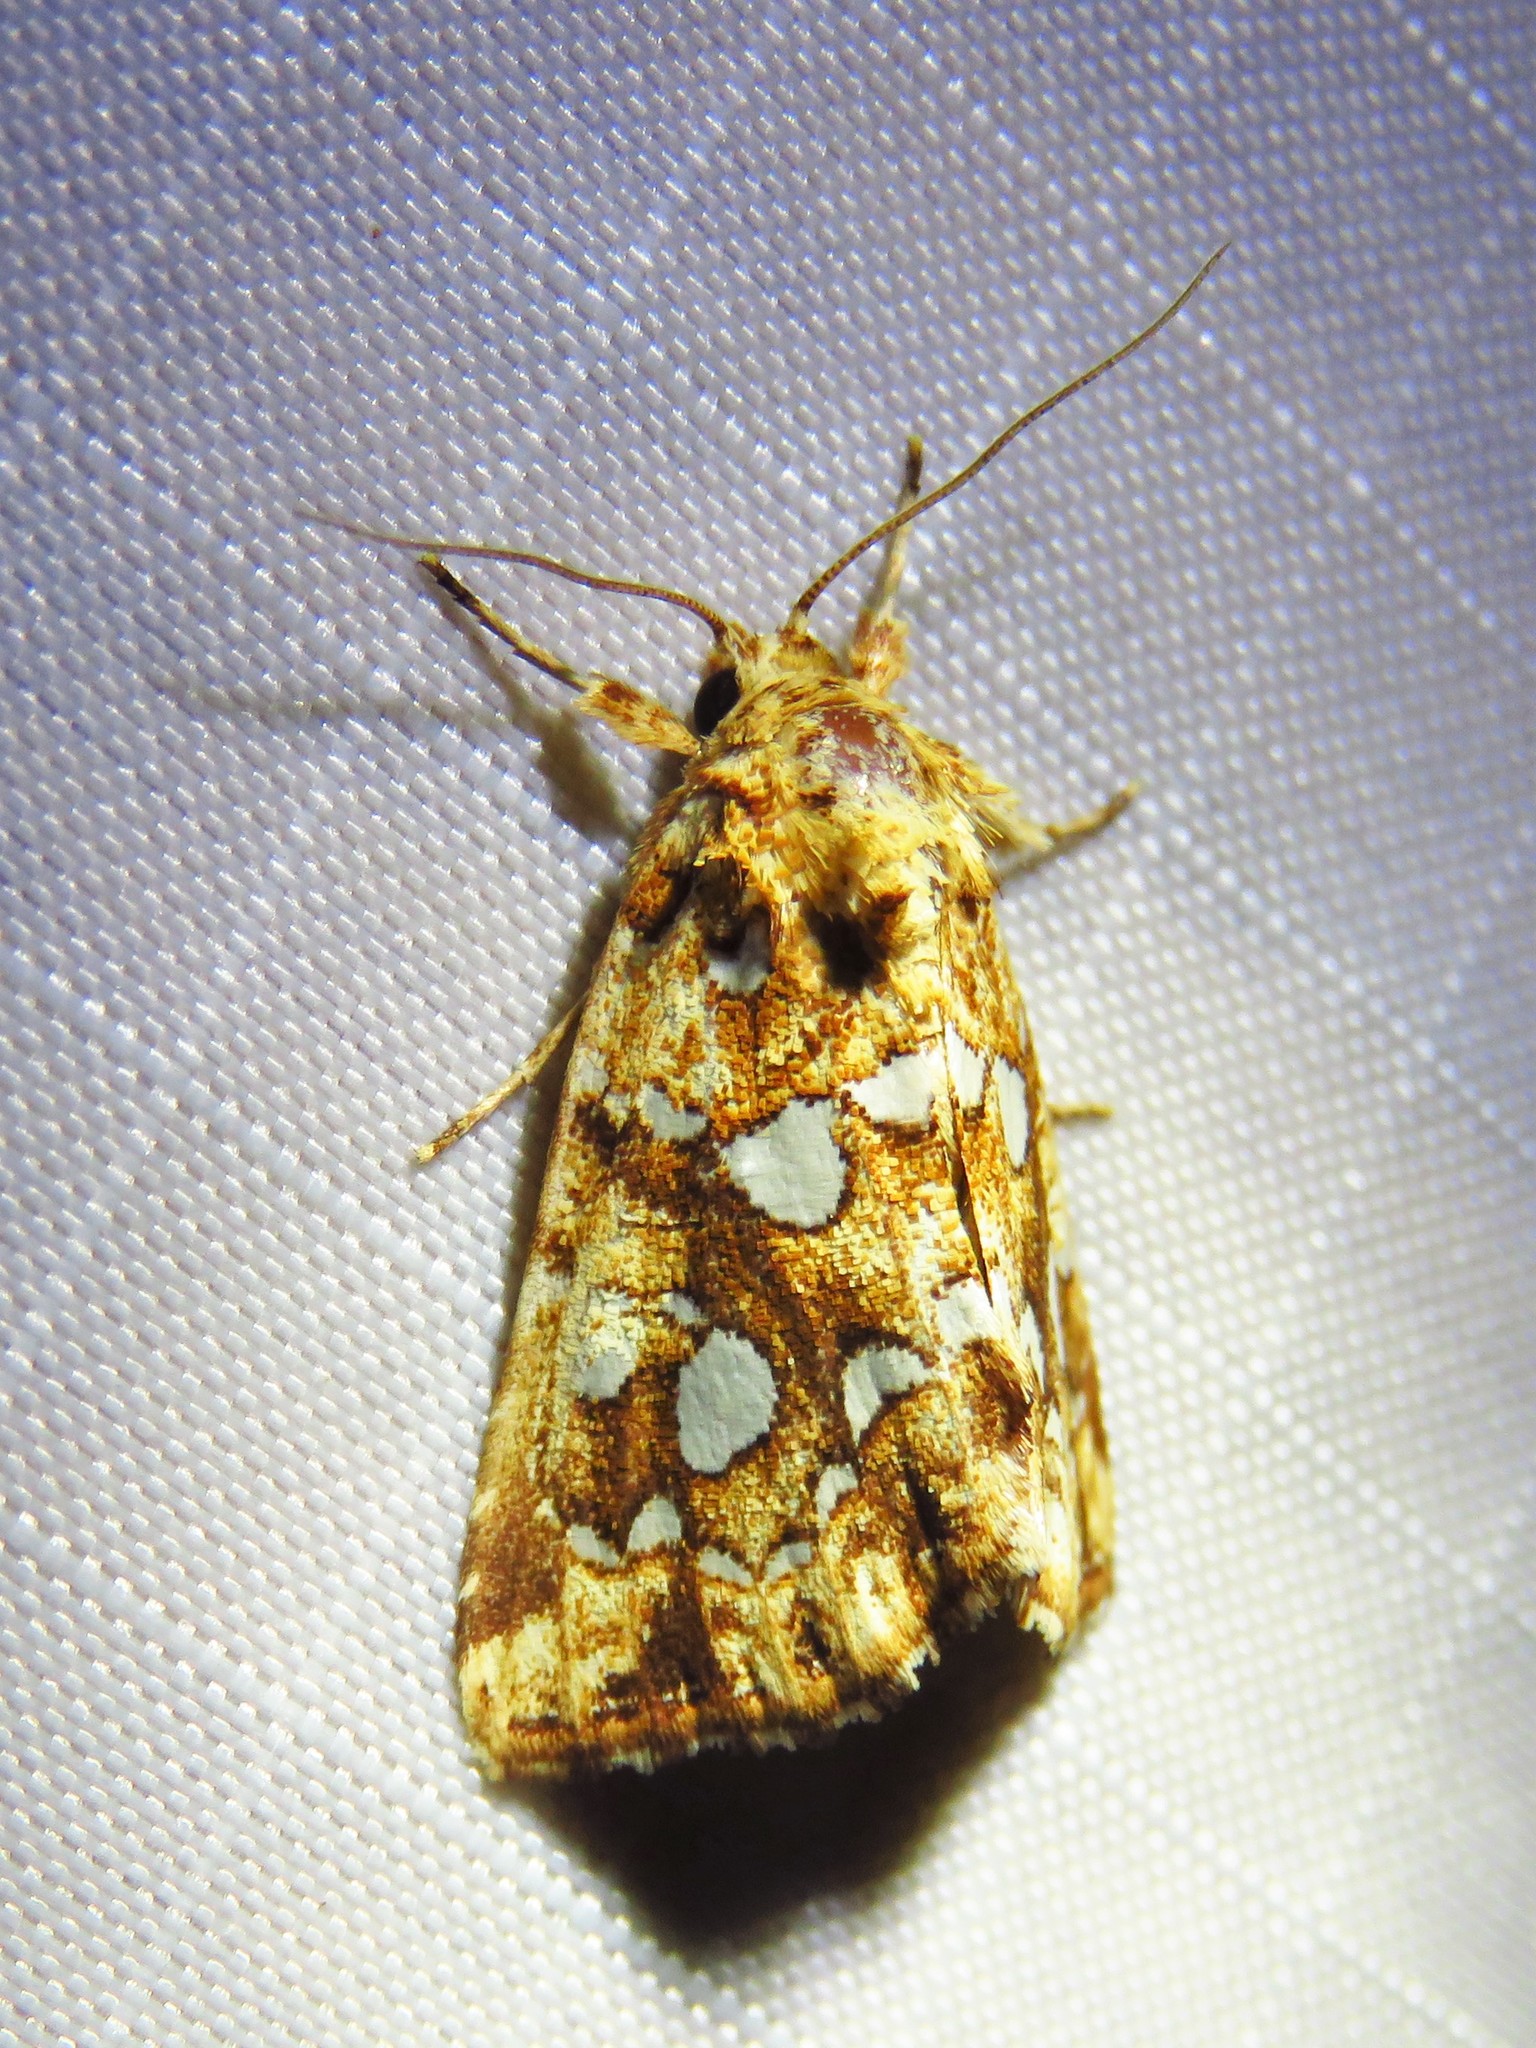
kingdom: Animalia
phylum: Arthropoda
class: Insecta
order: Lepidoptera
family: Noctuidae
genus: Callopistria
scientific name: Callopistria cordata
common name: Silver-spotted fern moth
